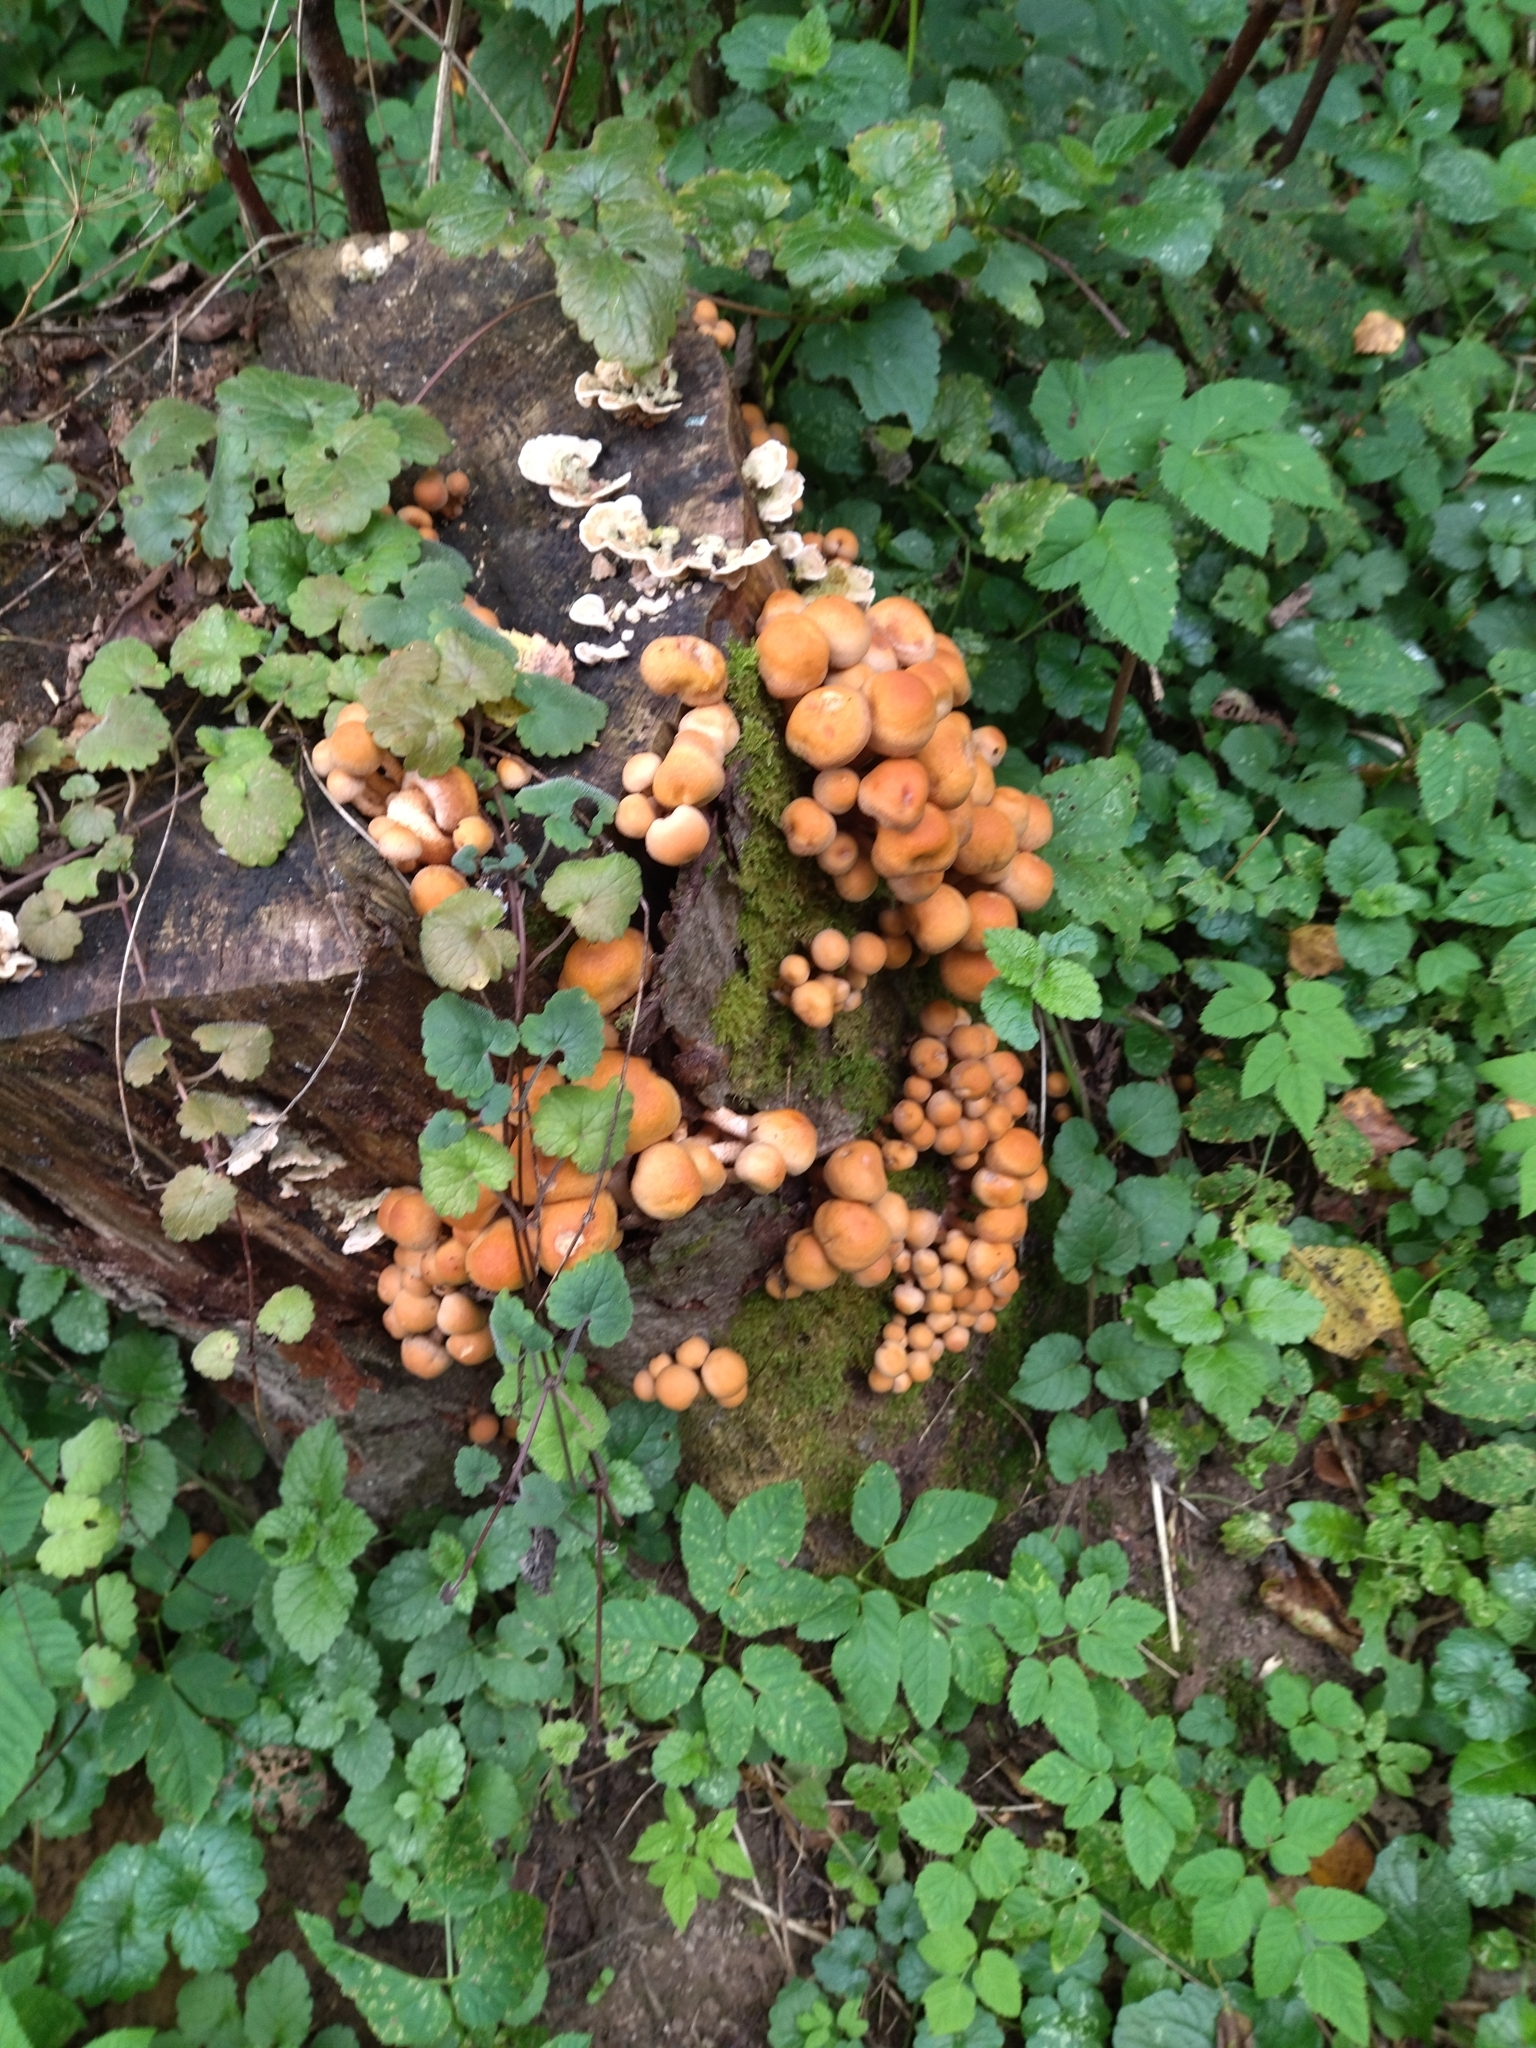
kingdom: Fungi
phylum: Basidiomycota
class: Agaricomycetes
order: Agaricales
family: Strophariaceae
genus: Hypholoma
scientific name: Hypholoma lateritium
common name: Brick caps
